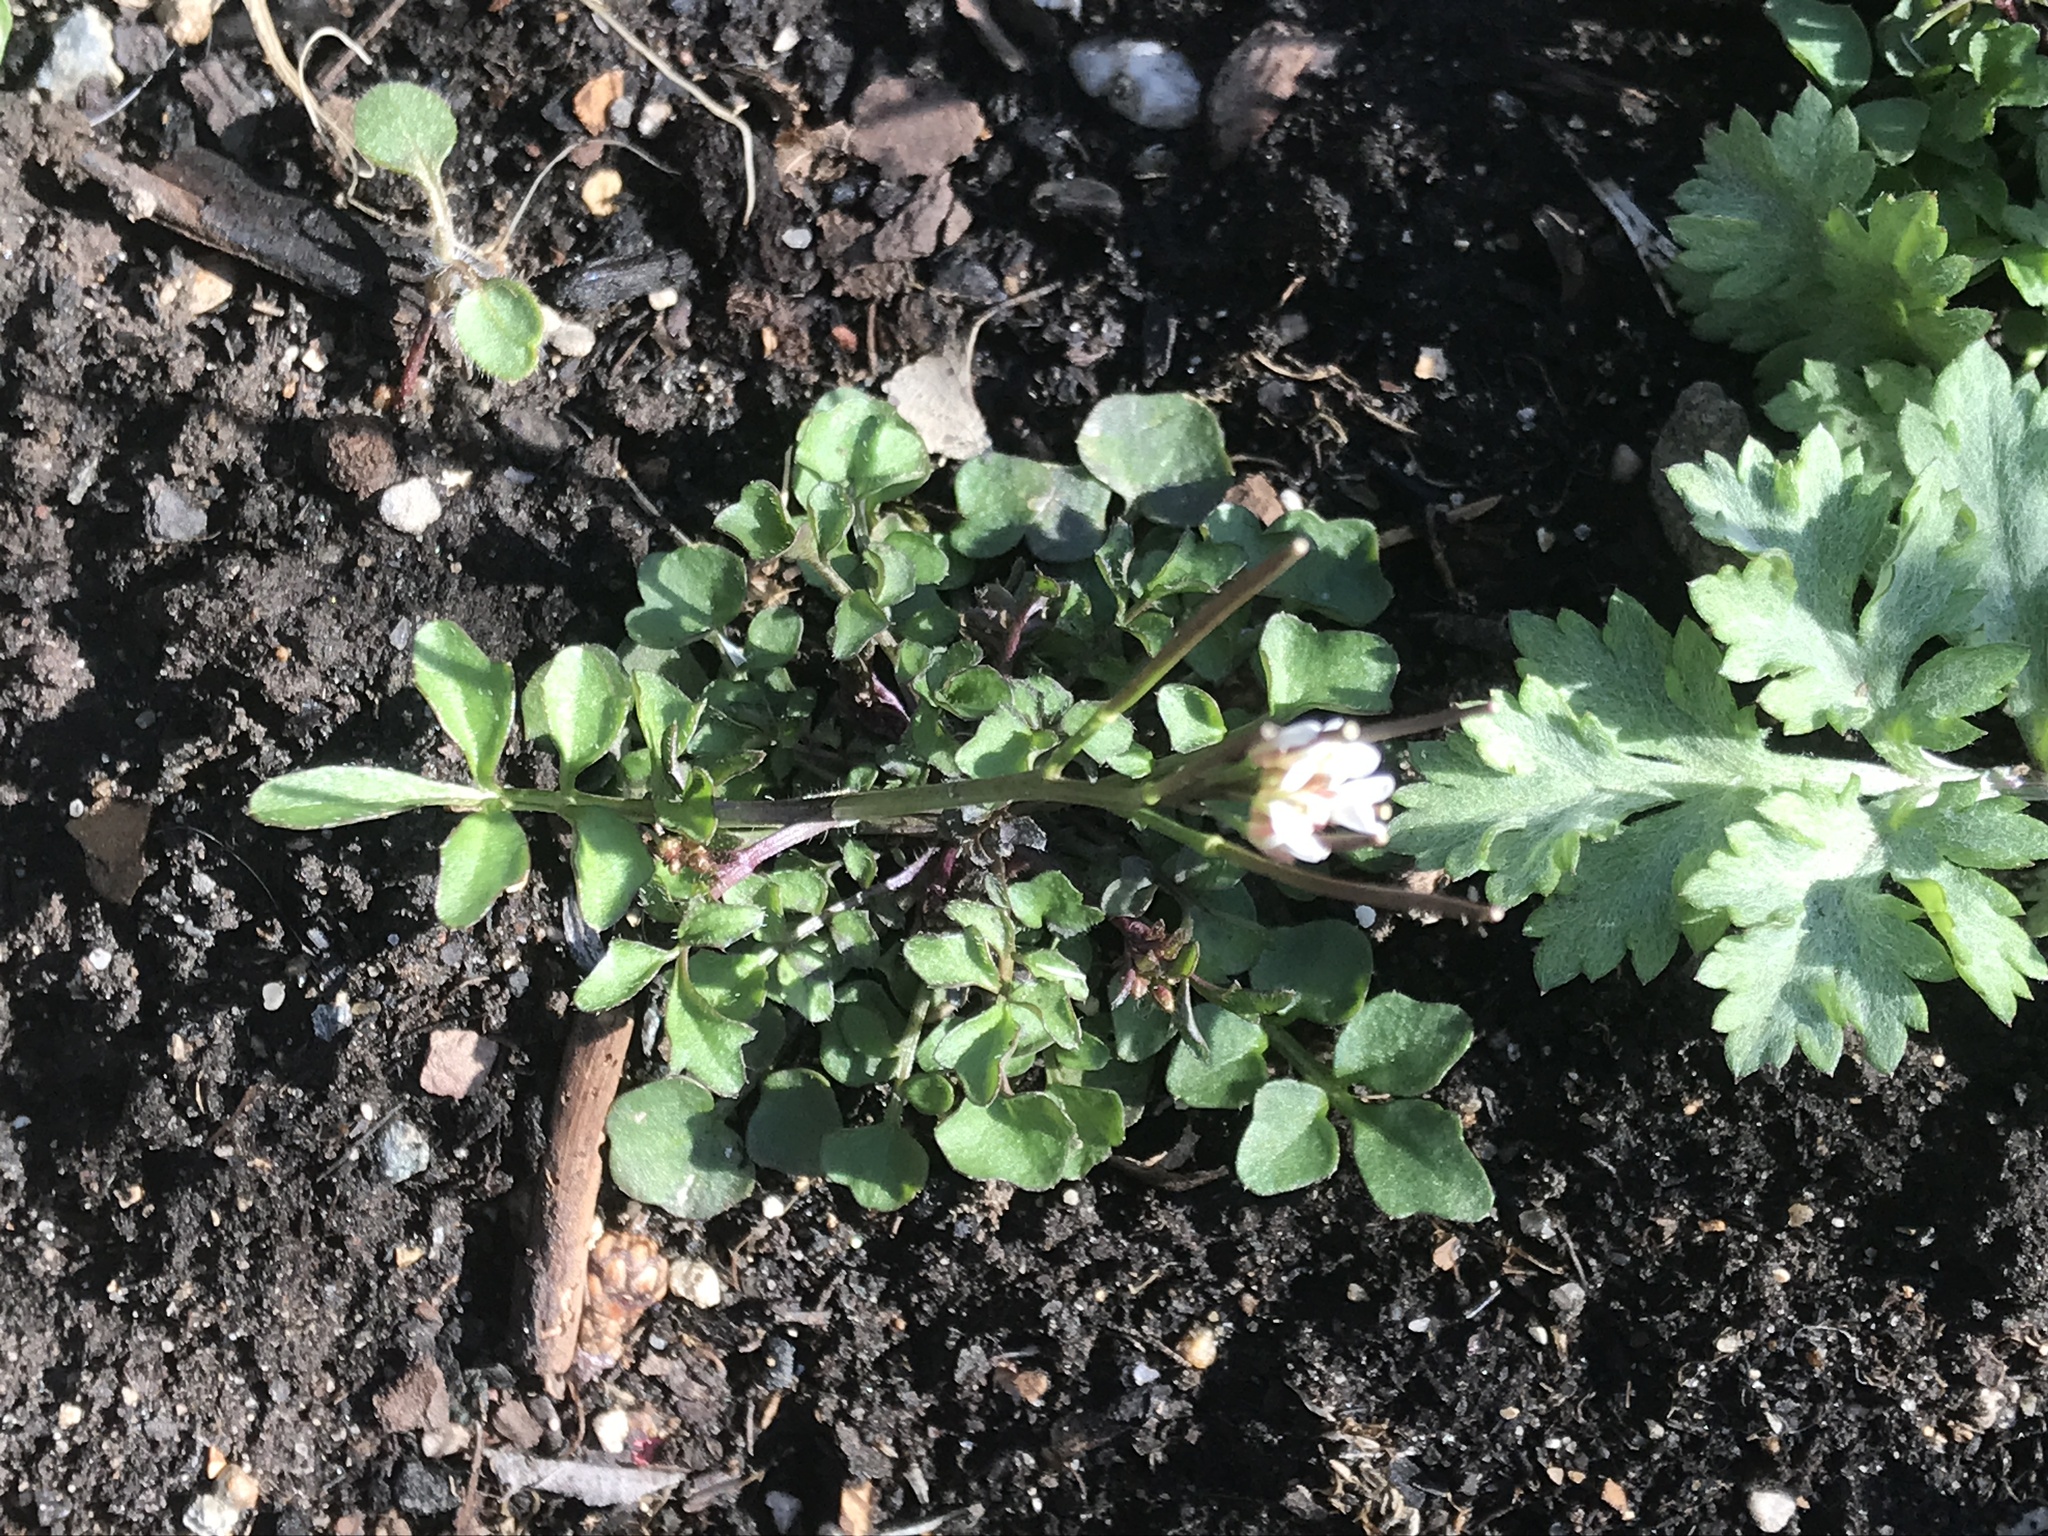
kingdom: Plantae
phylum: Tracheophyta
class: Magnoliopsida
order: Brassicales
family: Brassicaceae
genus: Cardamine
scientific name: Cardamine hirsuta
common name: Hairy bittercress
